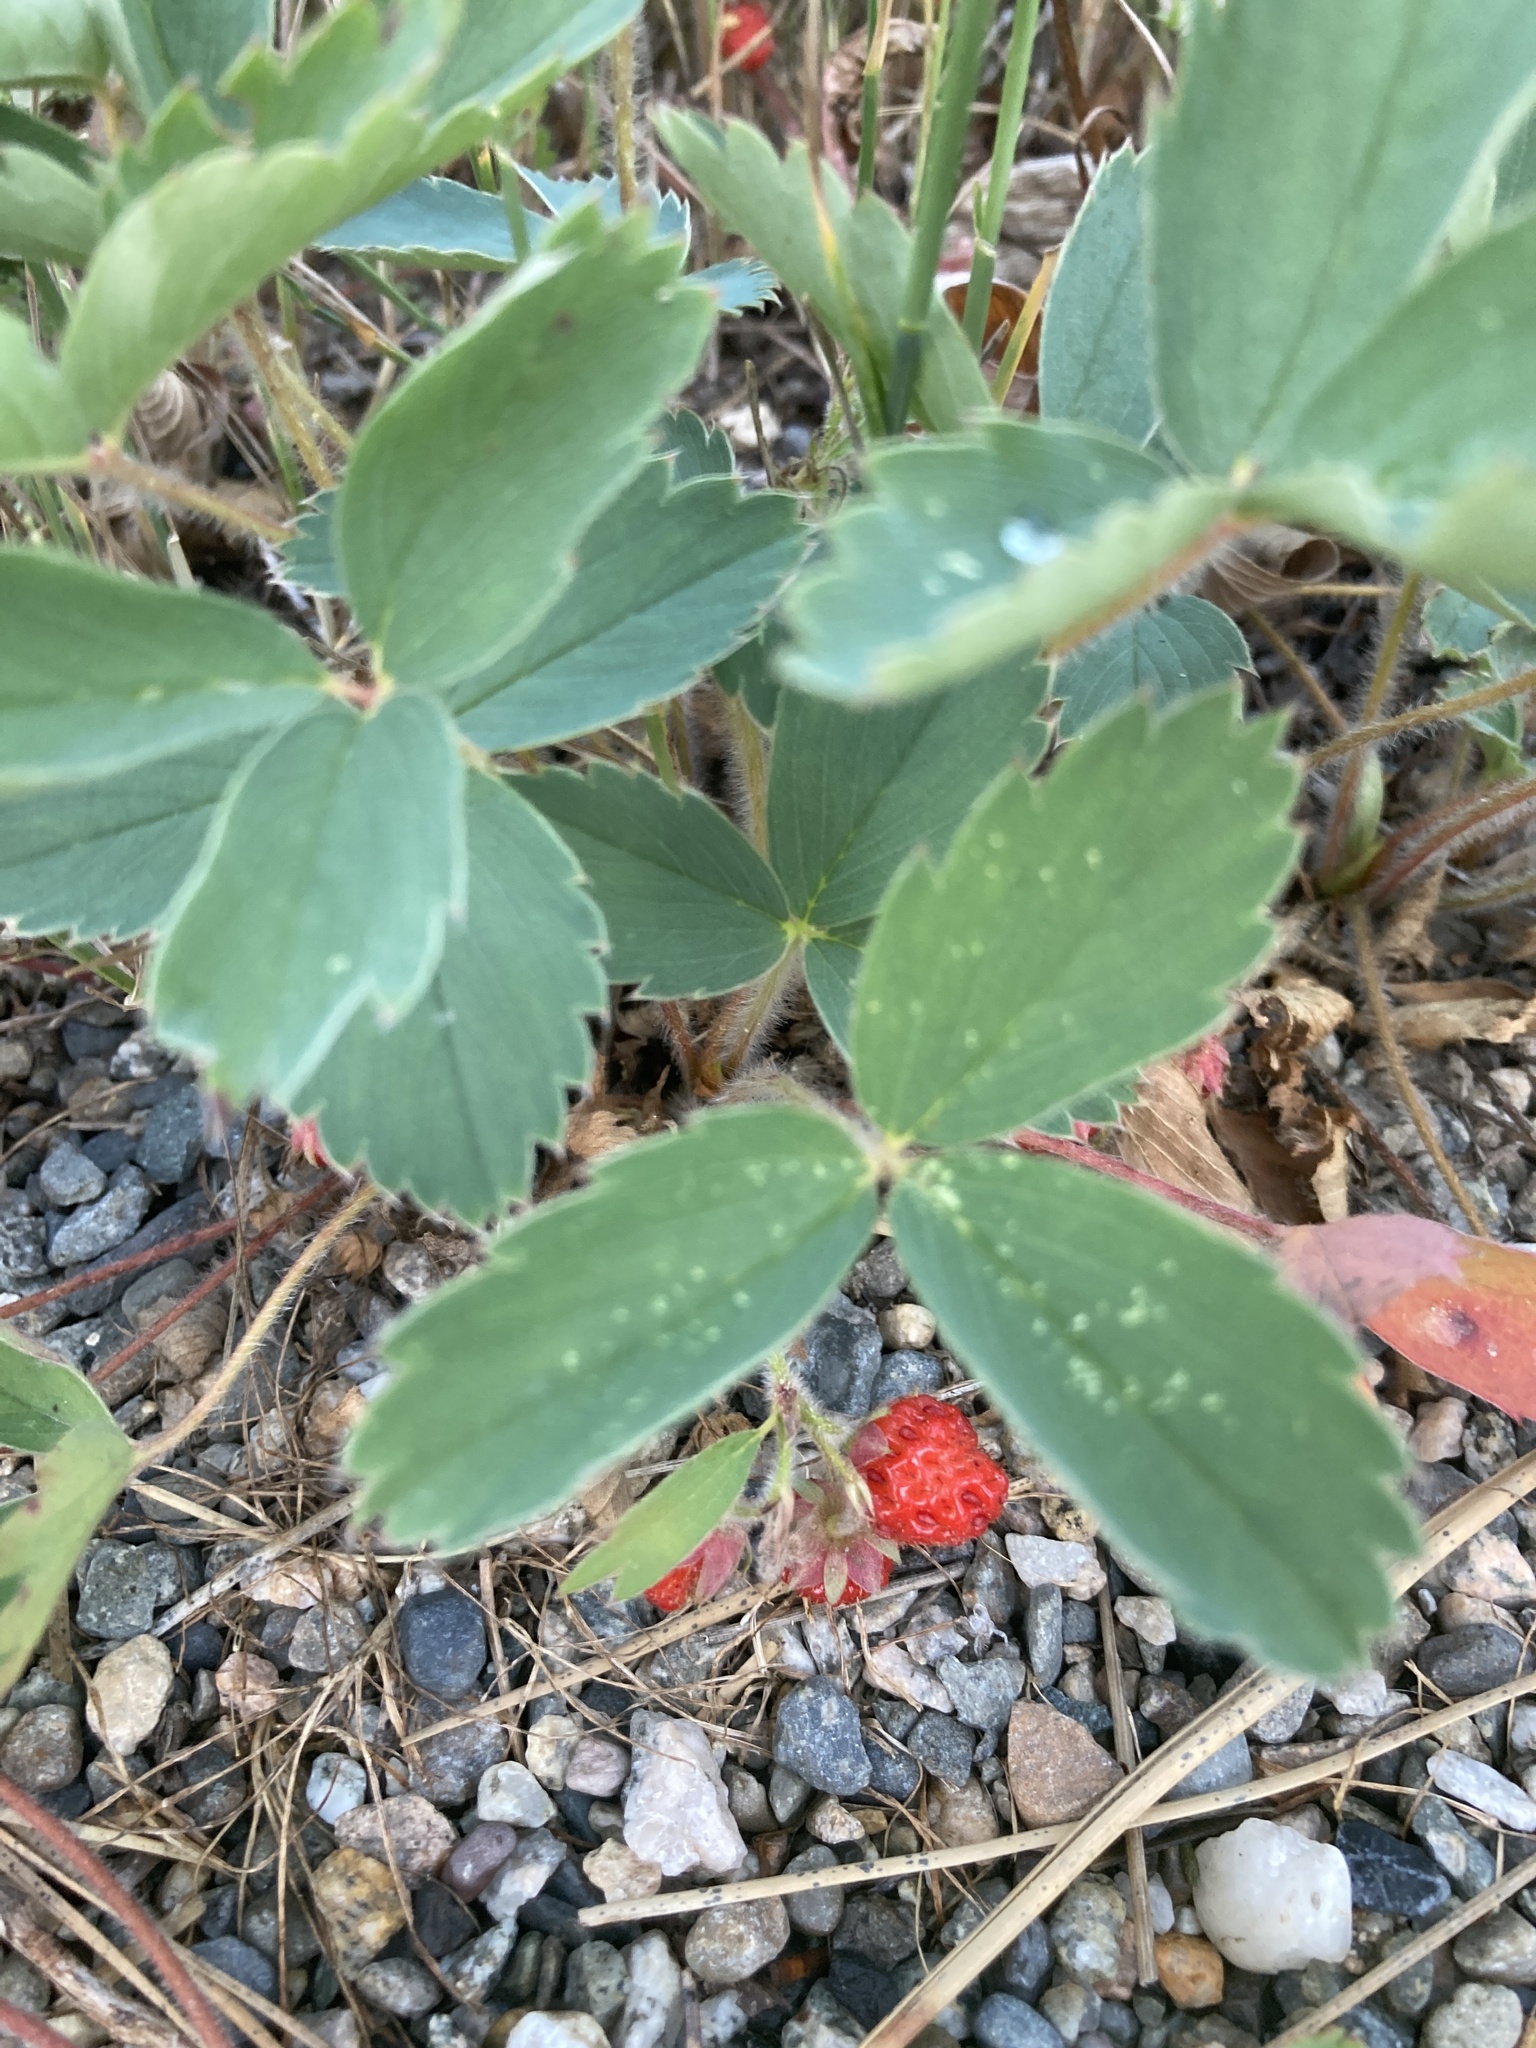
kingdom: Plantae
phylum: Tracheophyta
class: Magnoliopsida
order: Rosales
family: Rosaceae
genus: Fragaria
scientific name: Fragaria virginiana
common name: Thickleaved wild strawberry
